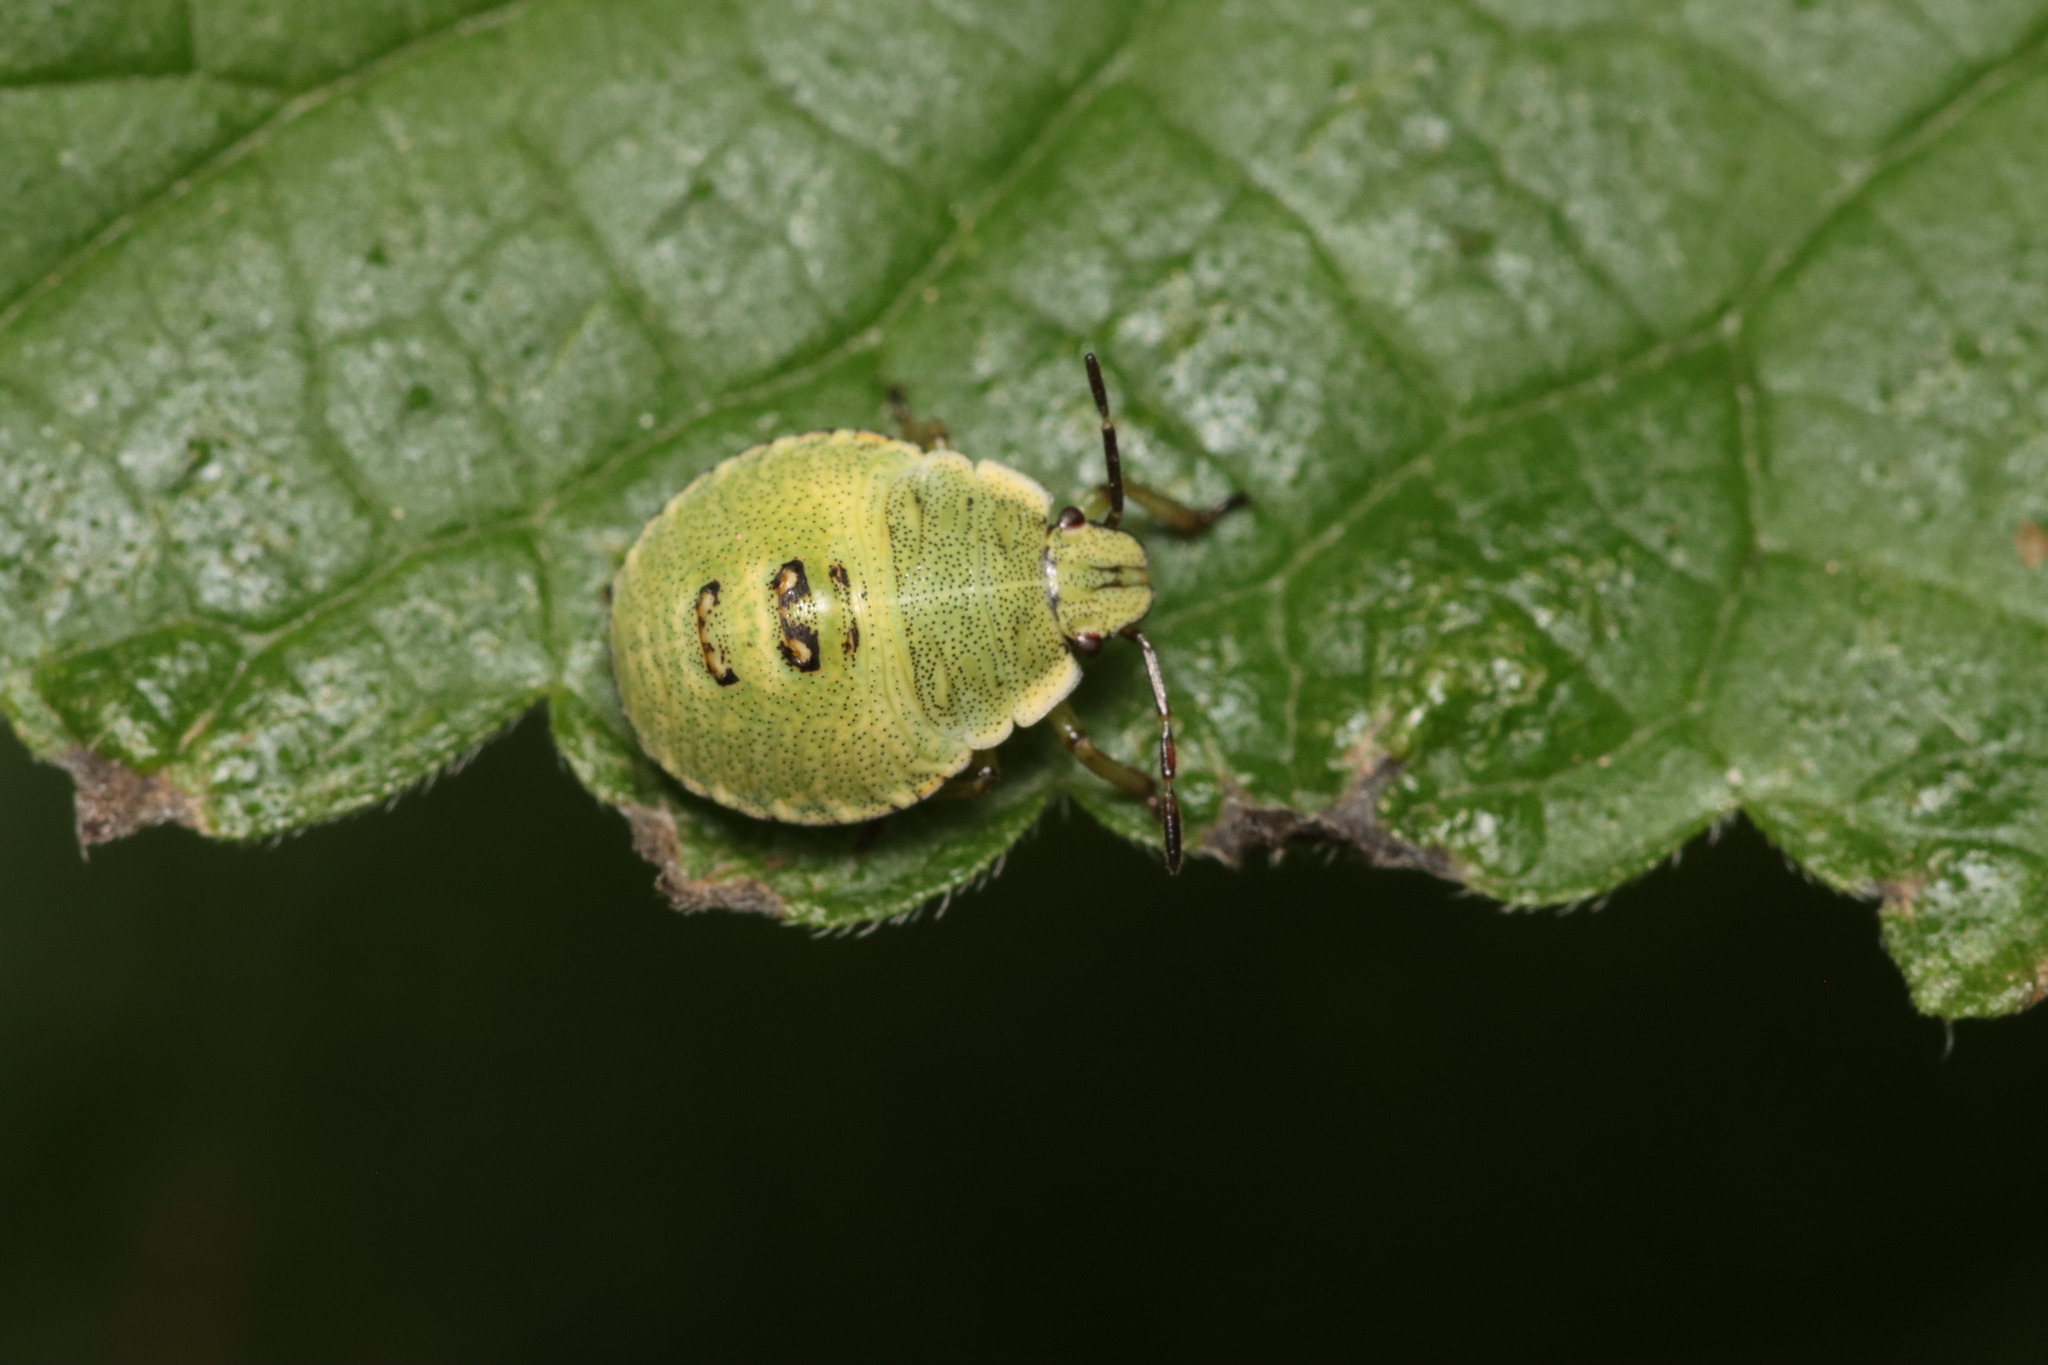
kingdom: Animalia
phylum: Arthropoda
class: Insecta
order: Hemiptera
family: Pentatomidae
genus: Palomena
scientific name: Palomena prasina
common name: Green shieldbug
